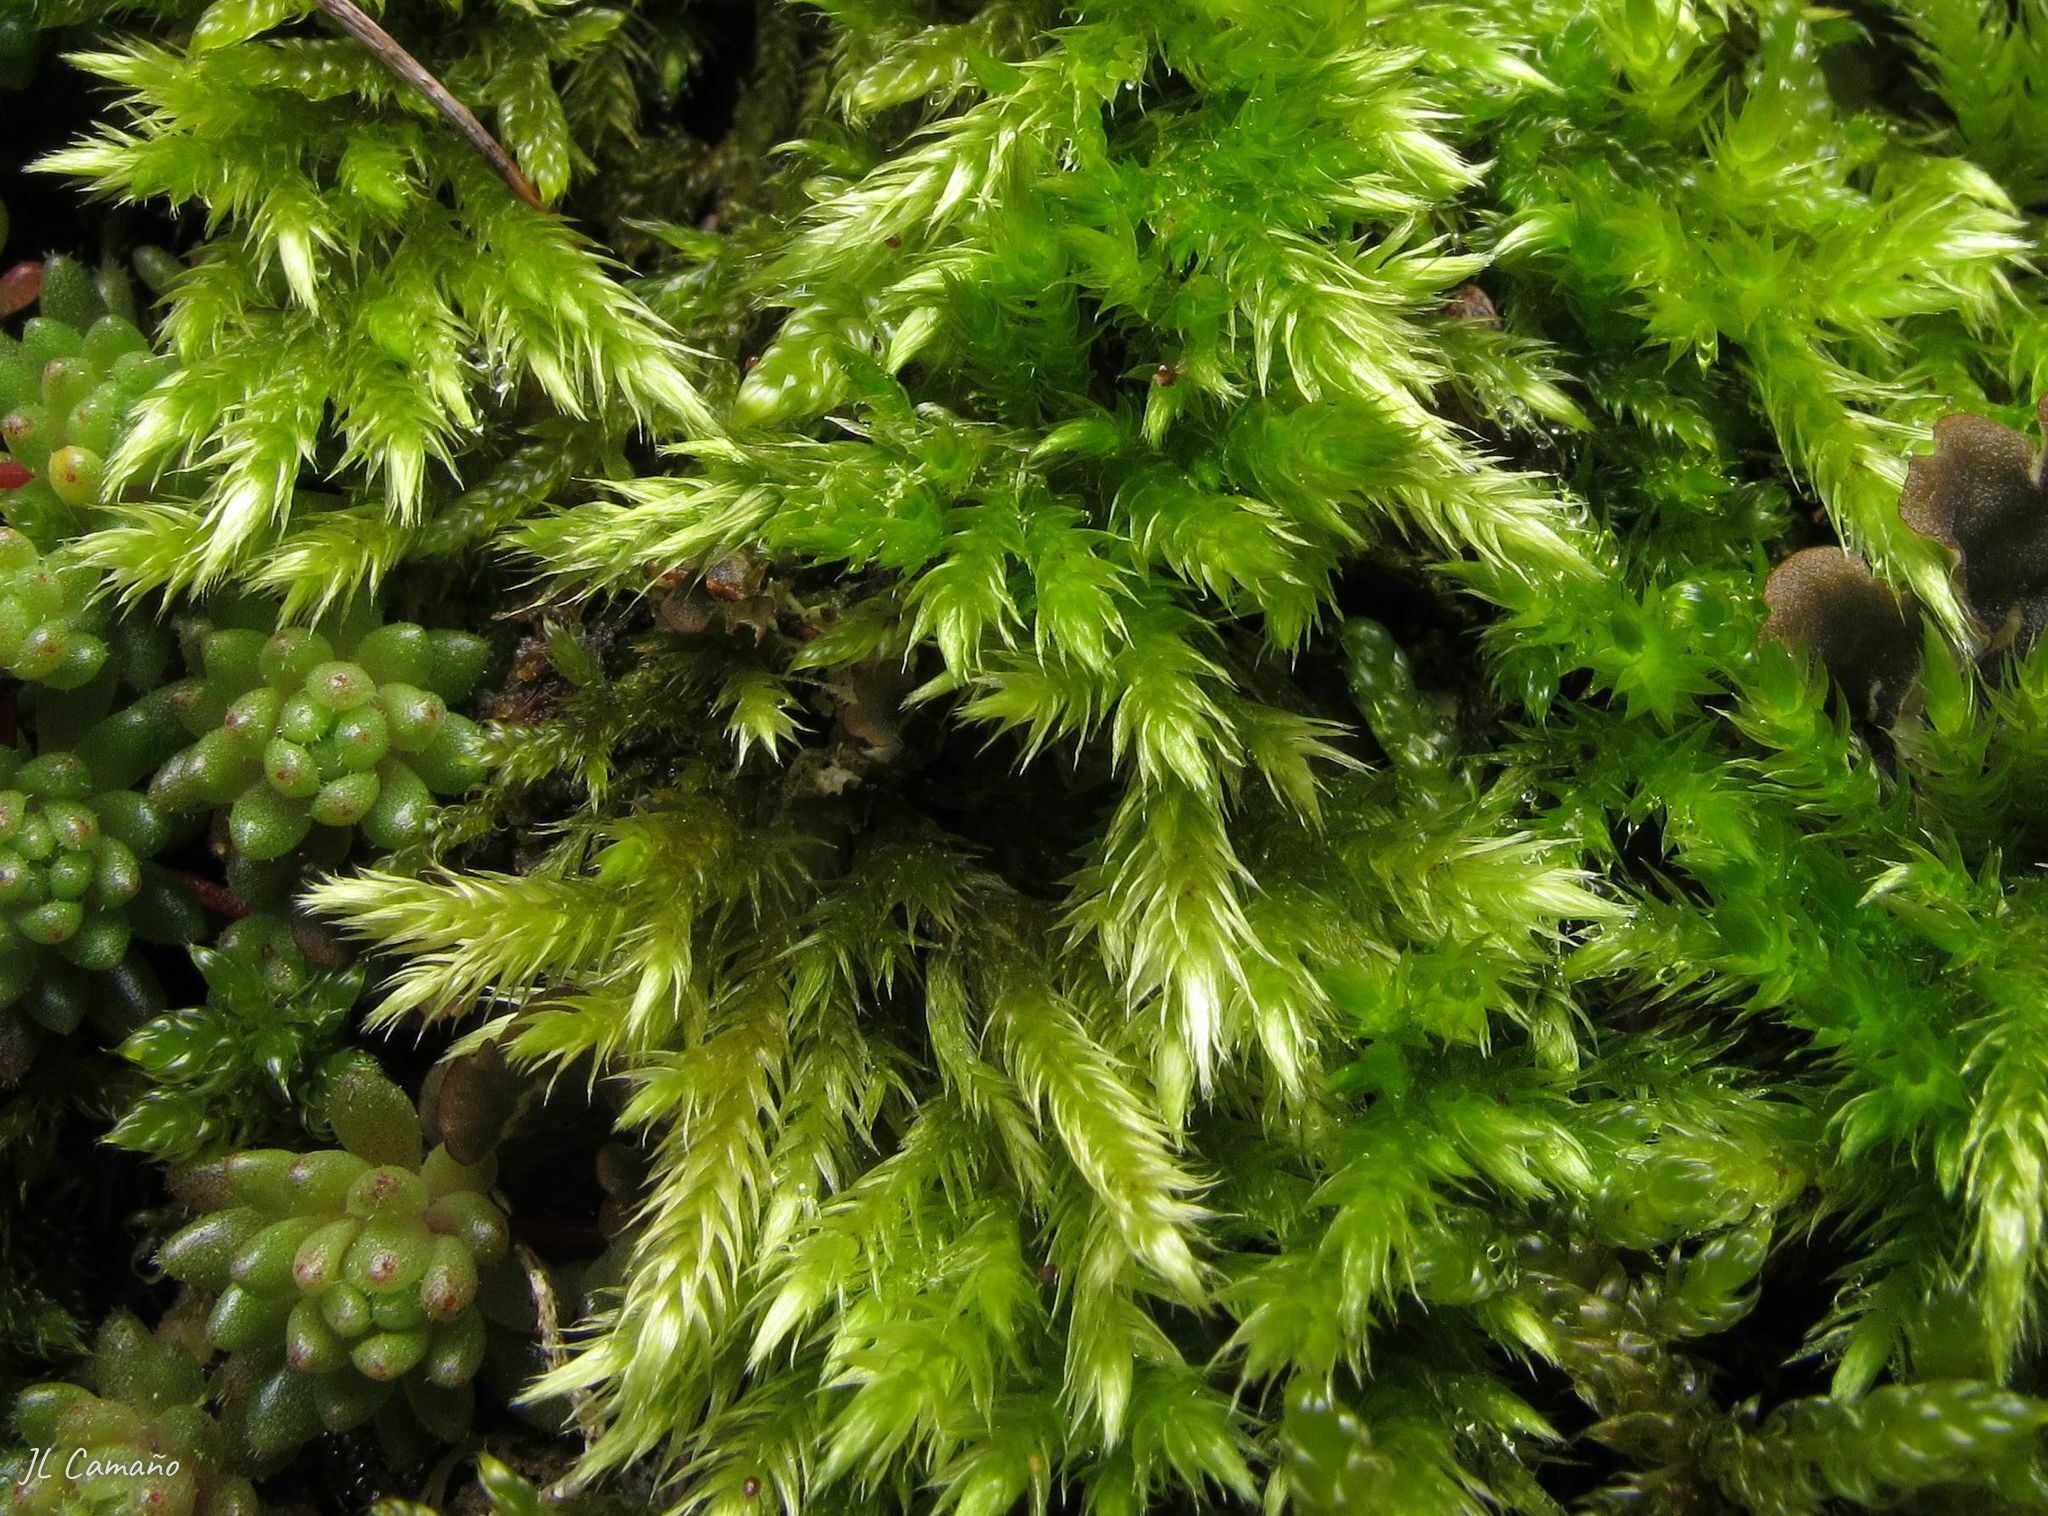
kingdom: Plantae
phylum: Bryophyta
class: Bryopsida
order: Hypnales
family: Brachytheciaceae
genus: Homalothecium
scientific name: Homalothecium sericeum
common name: Silky wall feather-moss
